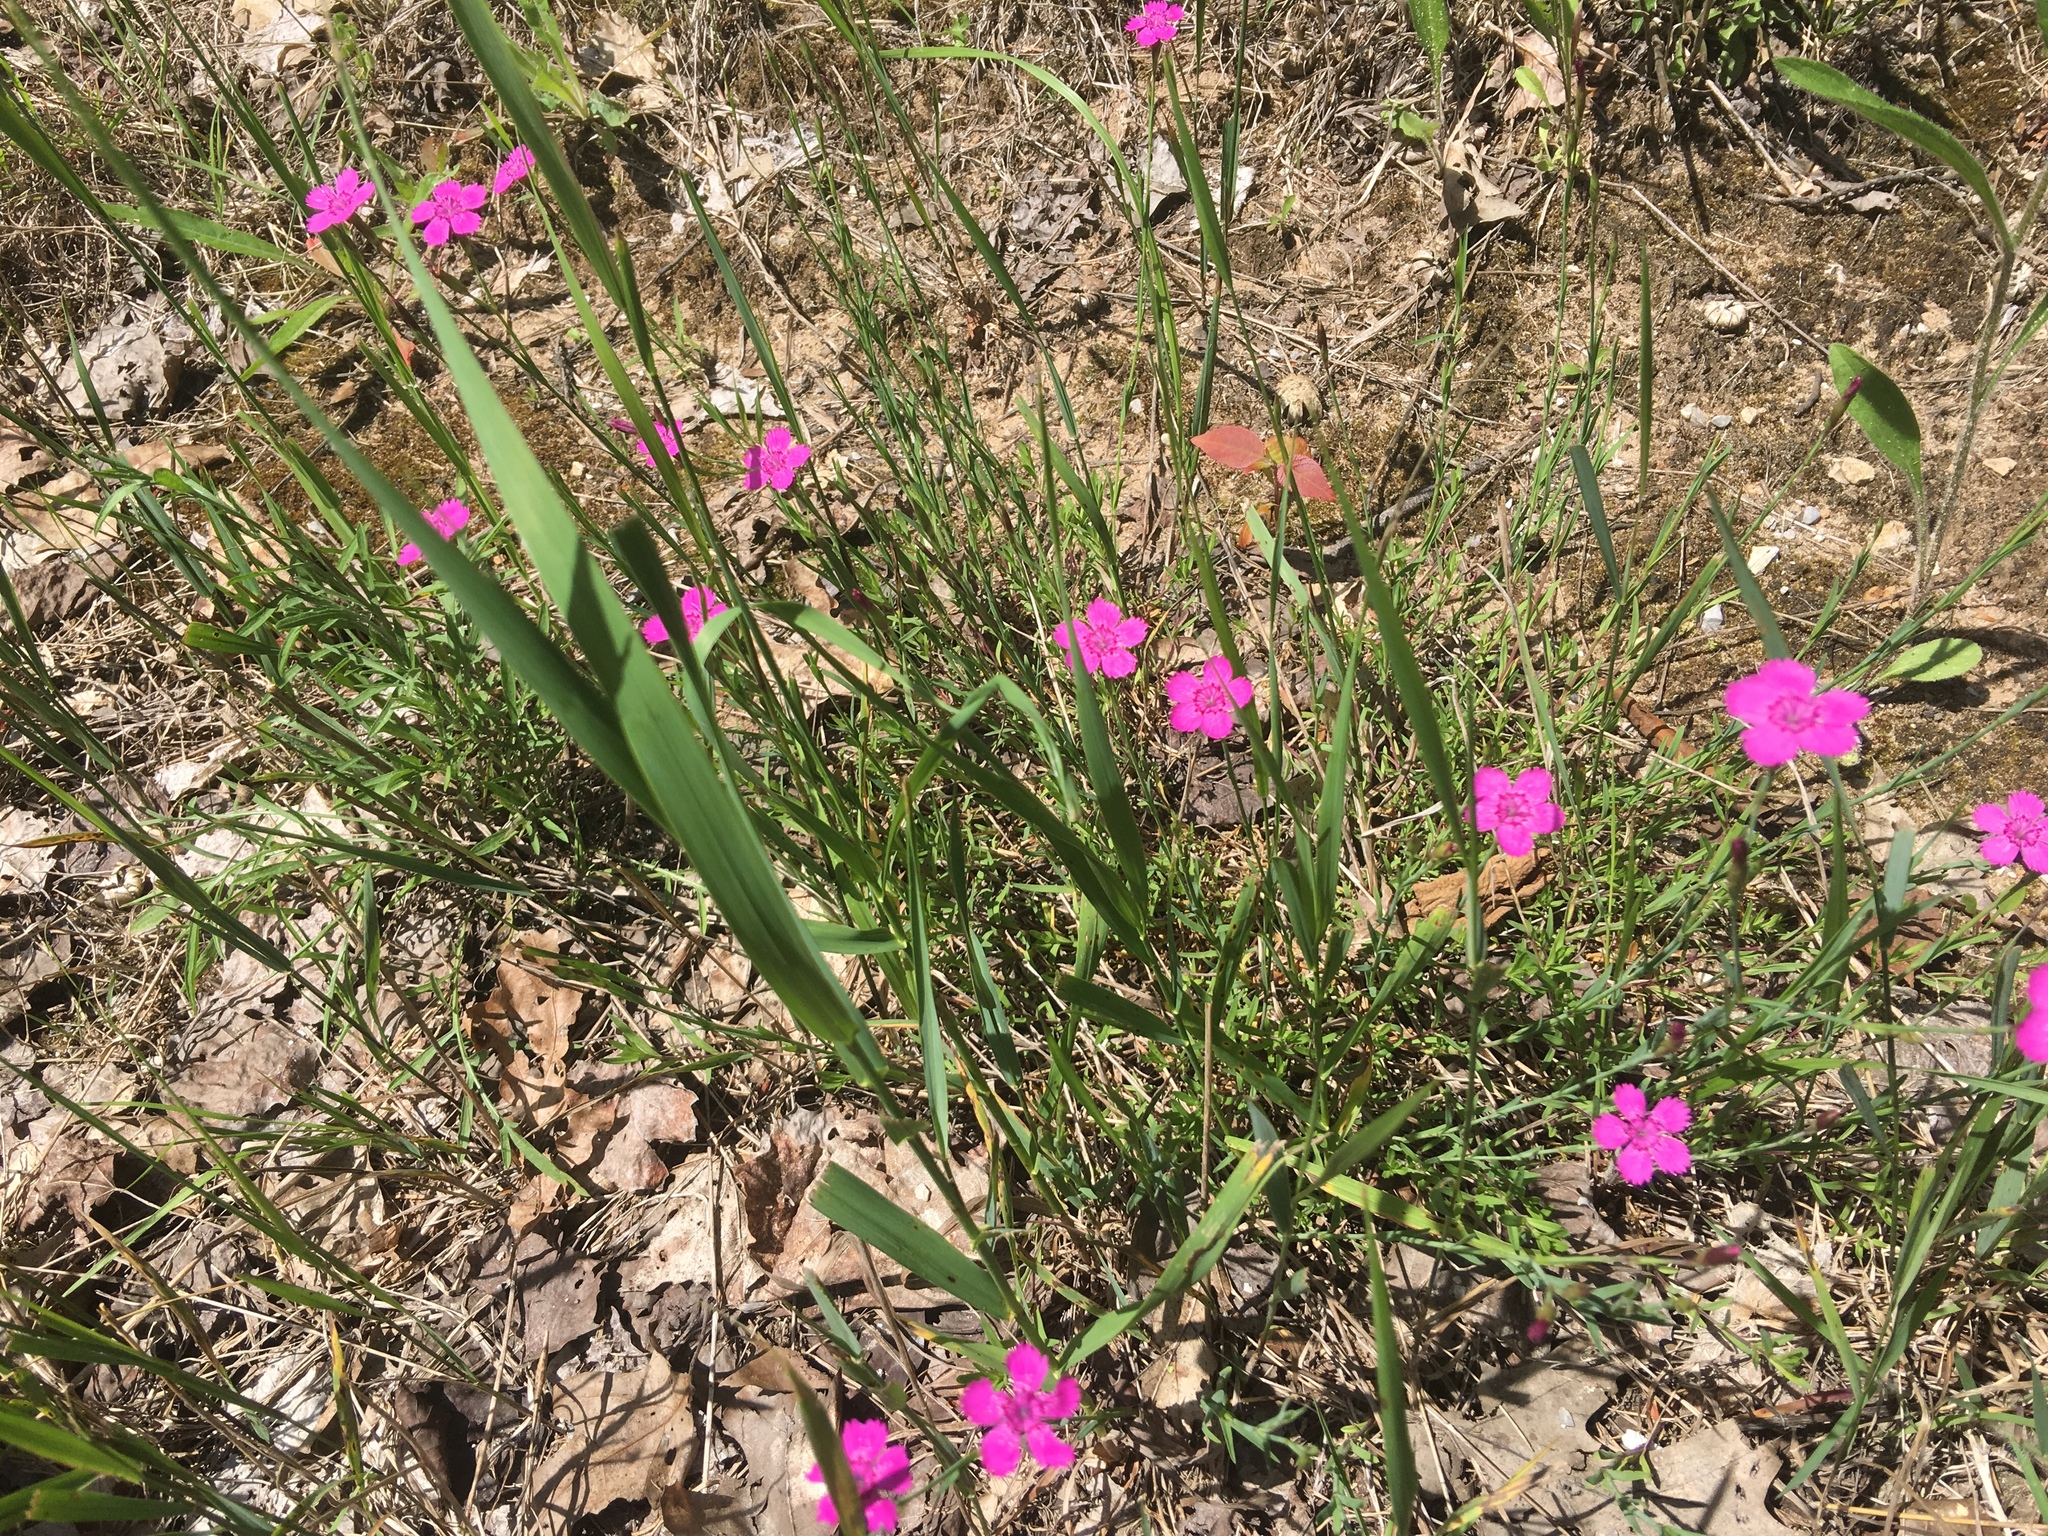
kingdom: Plantae
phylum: Tracheophyta
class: Magnoliopsida
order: Caryophyllales
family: Caryophyllaceae
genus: Dianthus
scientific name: Dianthus deltoides
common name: Maiden pink
